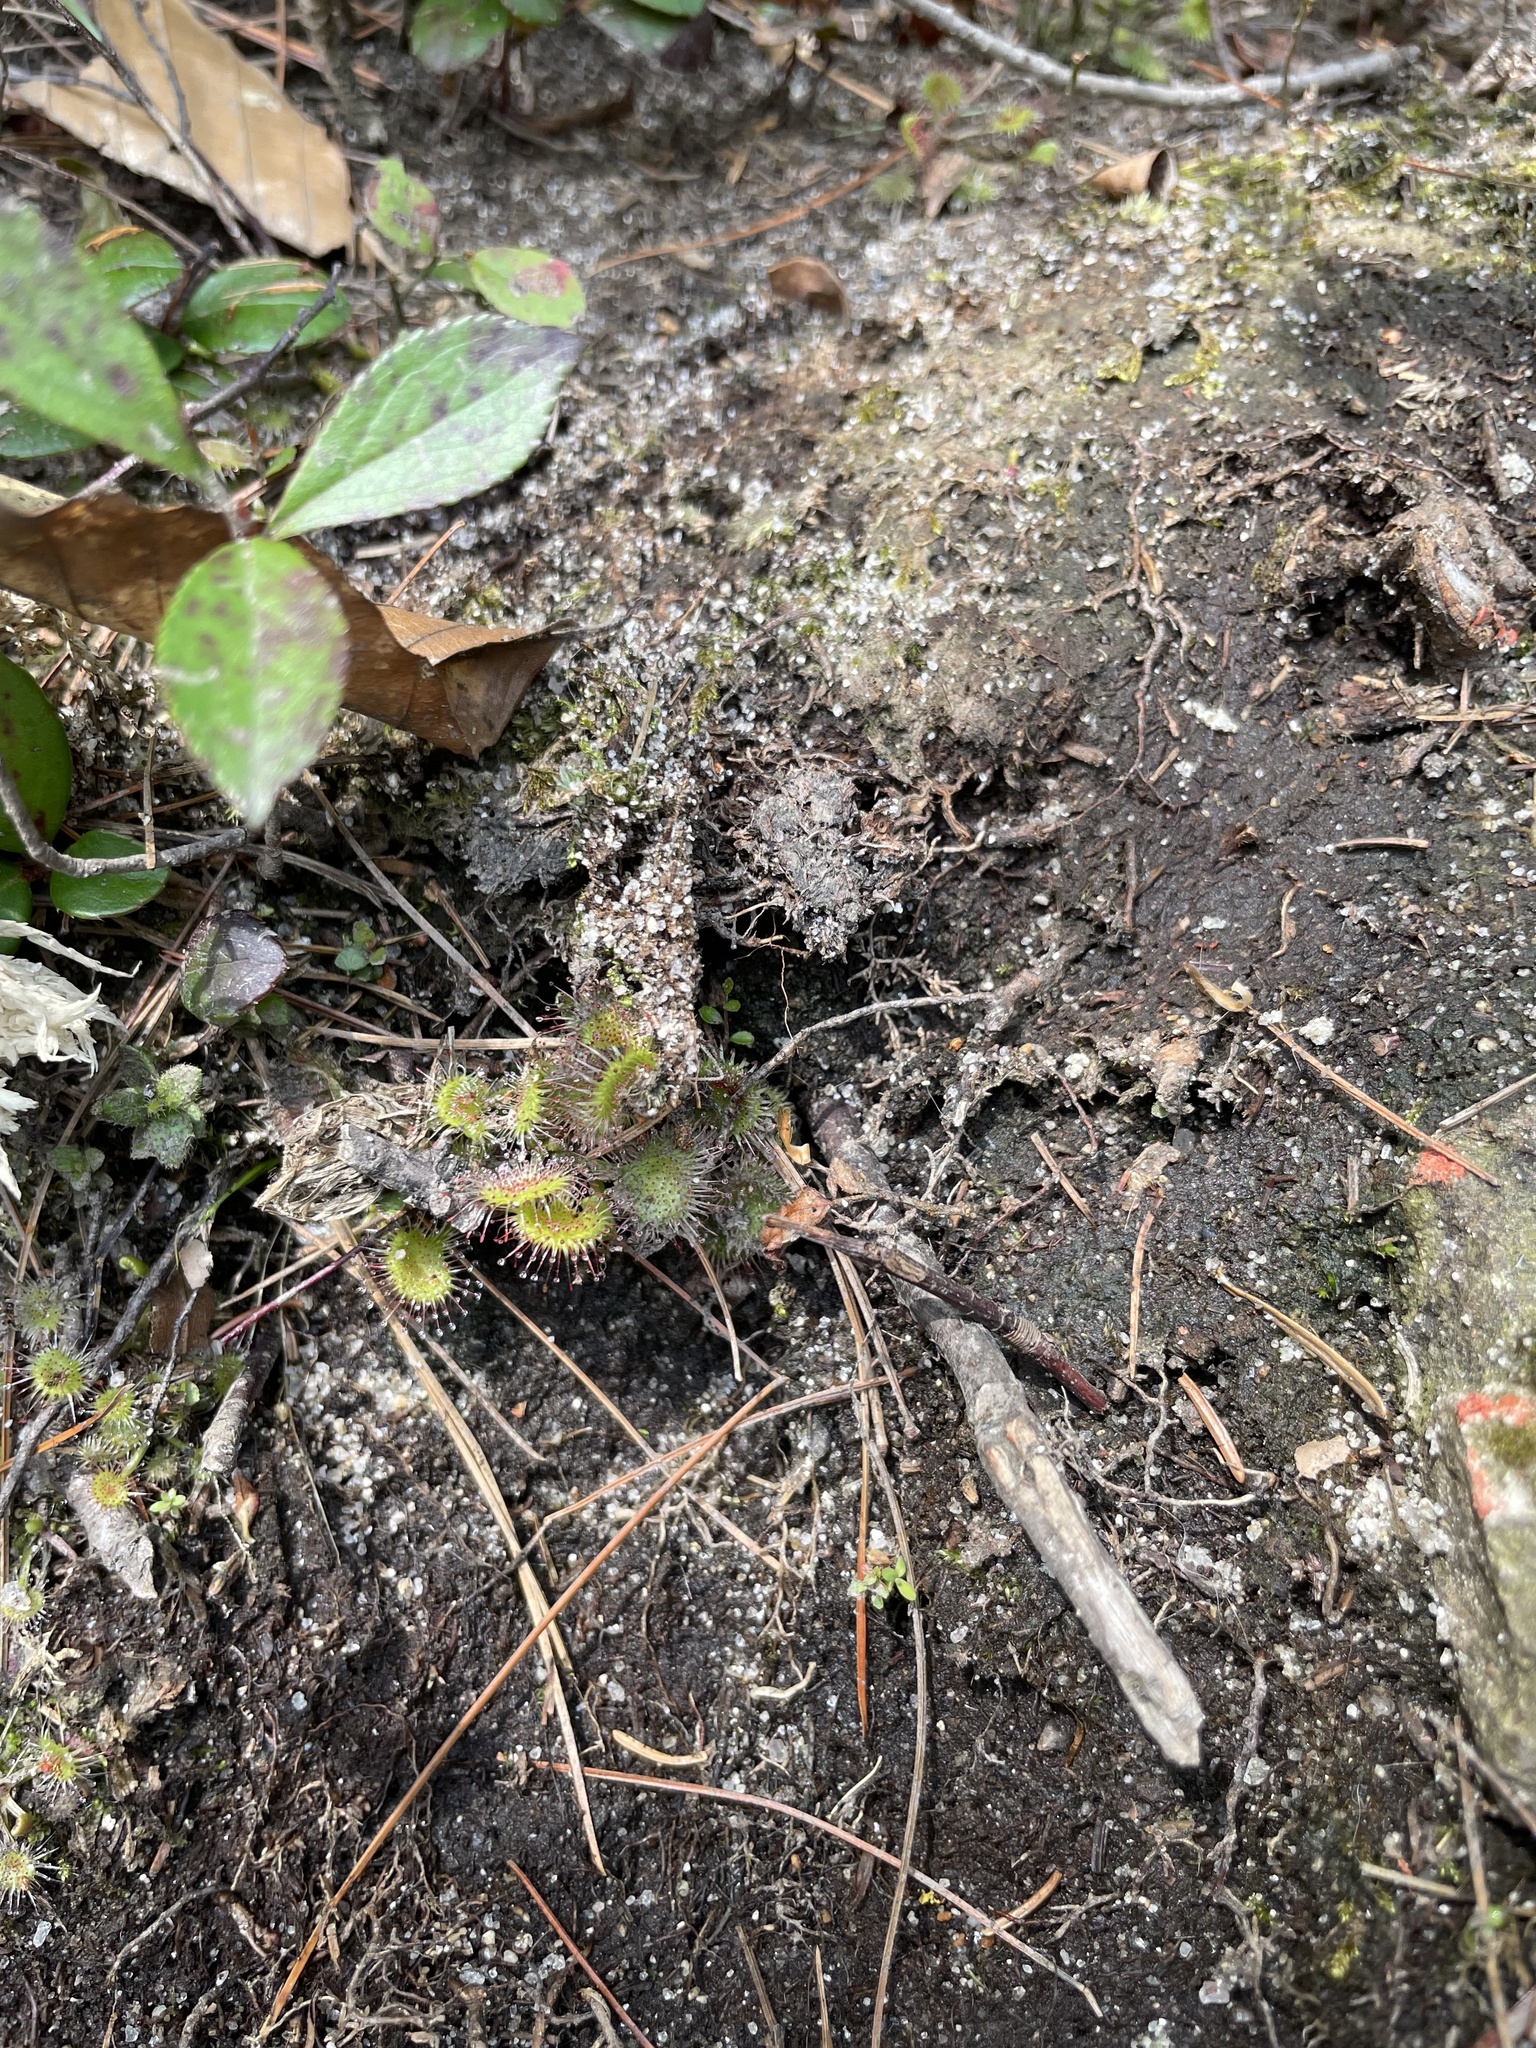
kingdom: Plantae
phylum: Tracheophyta
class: Magnoliopsida
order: Caryophyllales
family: Droseraceae
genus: Drosera
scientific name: Drosera rotundifolia
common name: Round-leaved sundew
